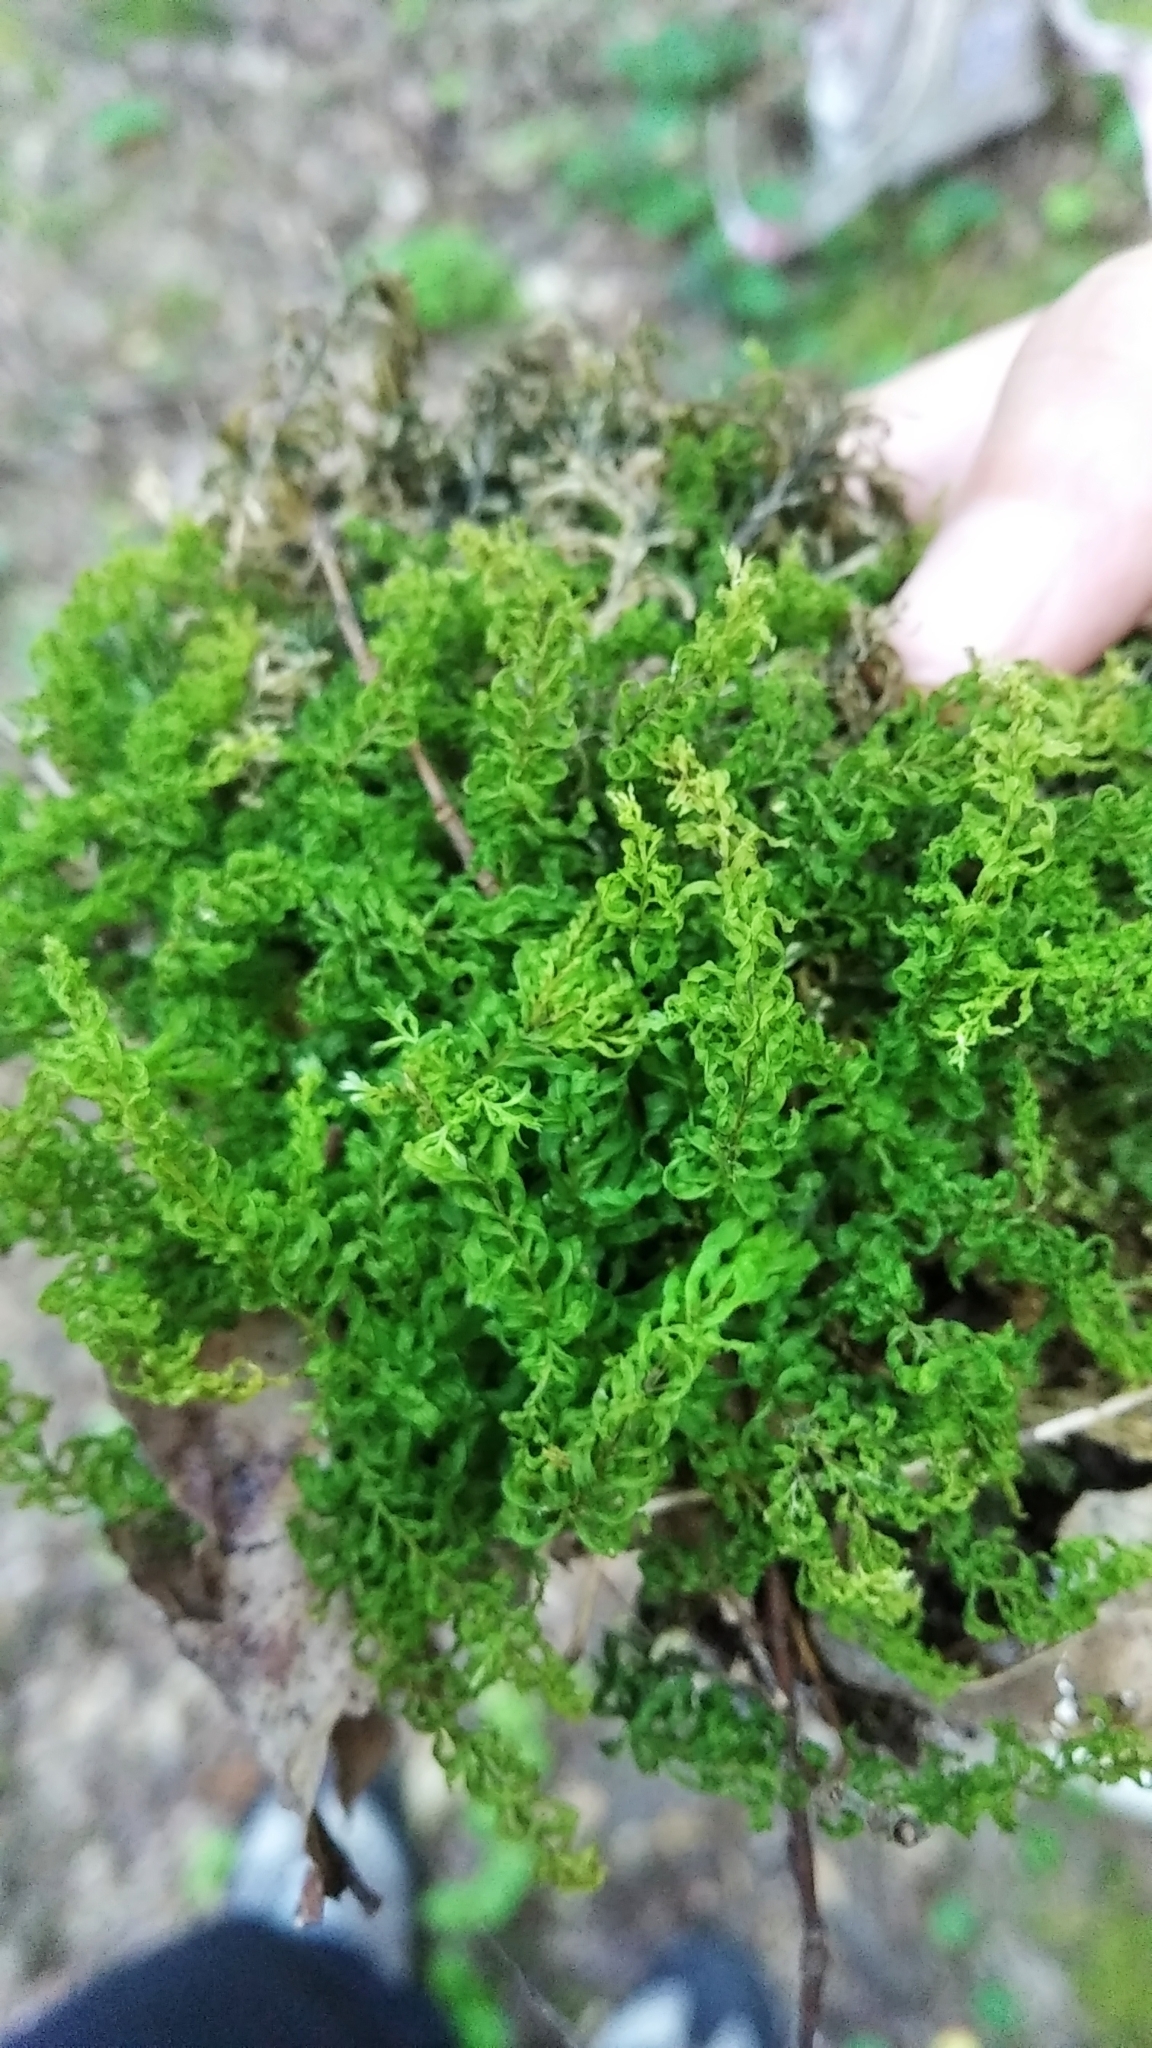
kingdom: Plantae
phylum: Bryophyta
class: Bryopsida
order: Bryales
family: Mniaceae
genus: Plagiomnium
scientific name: Plagiomnium undulatum
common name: Hart's-tongue thyme-moss
